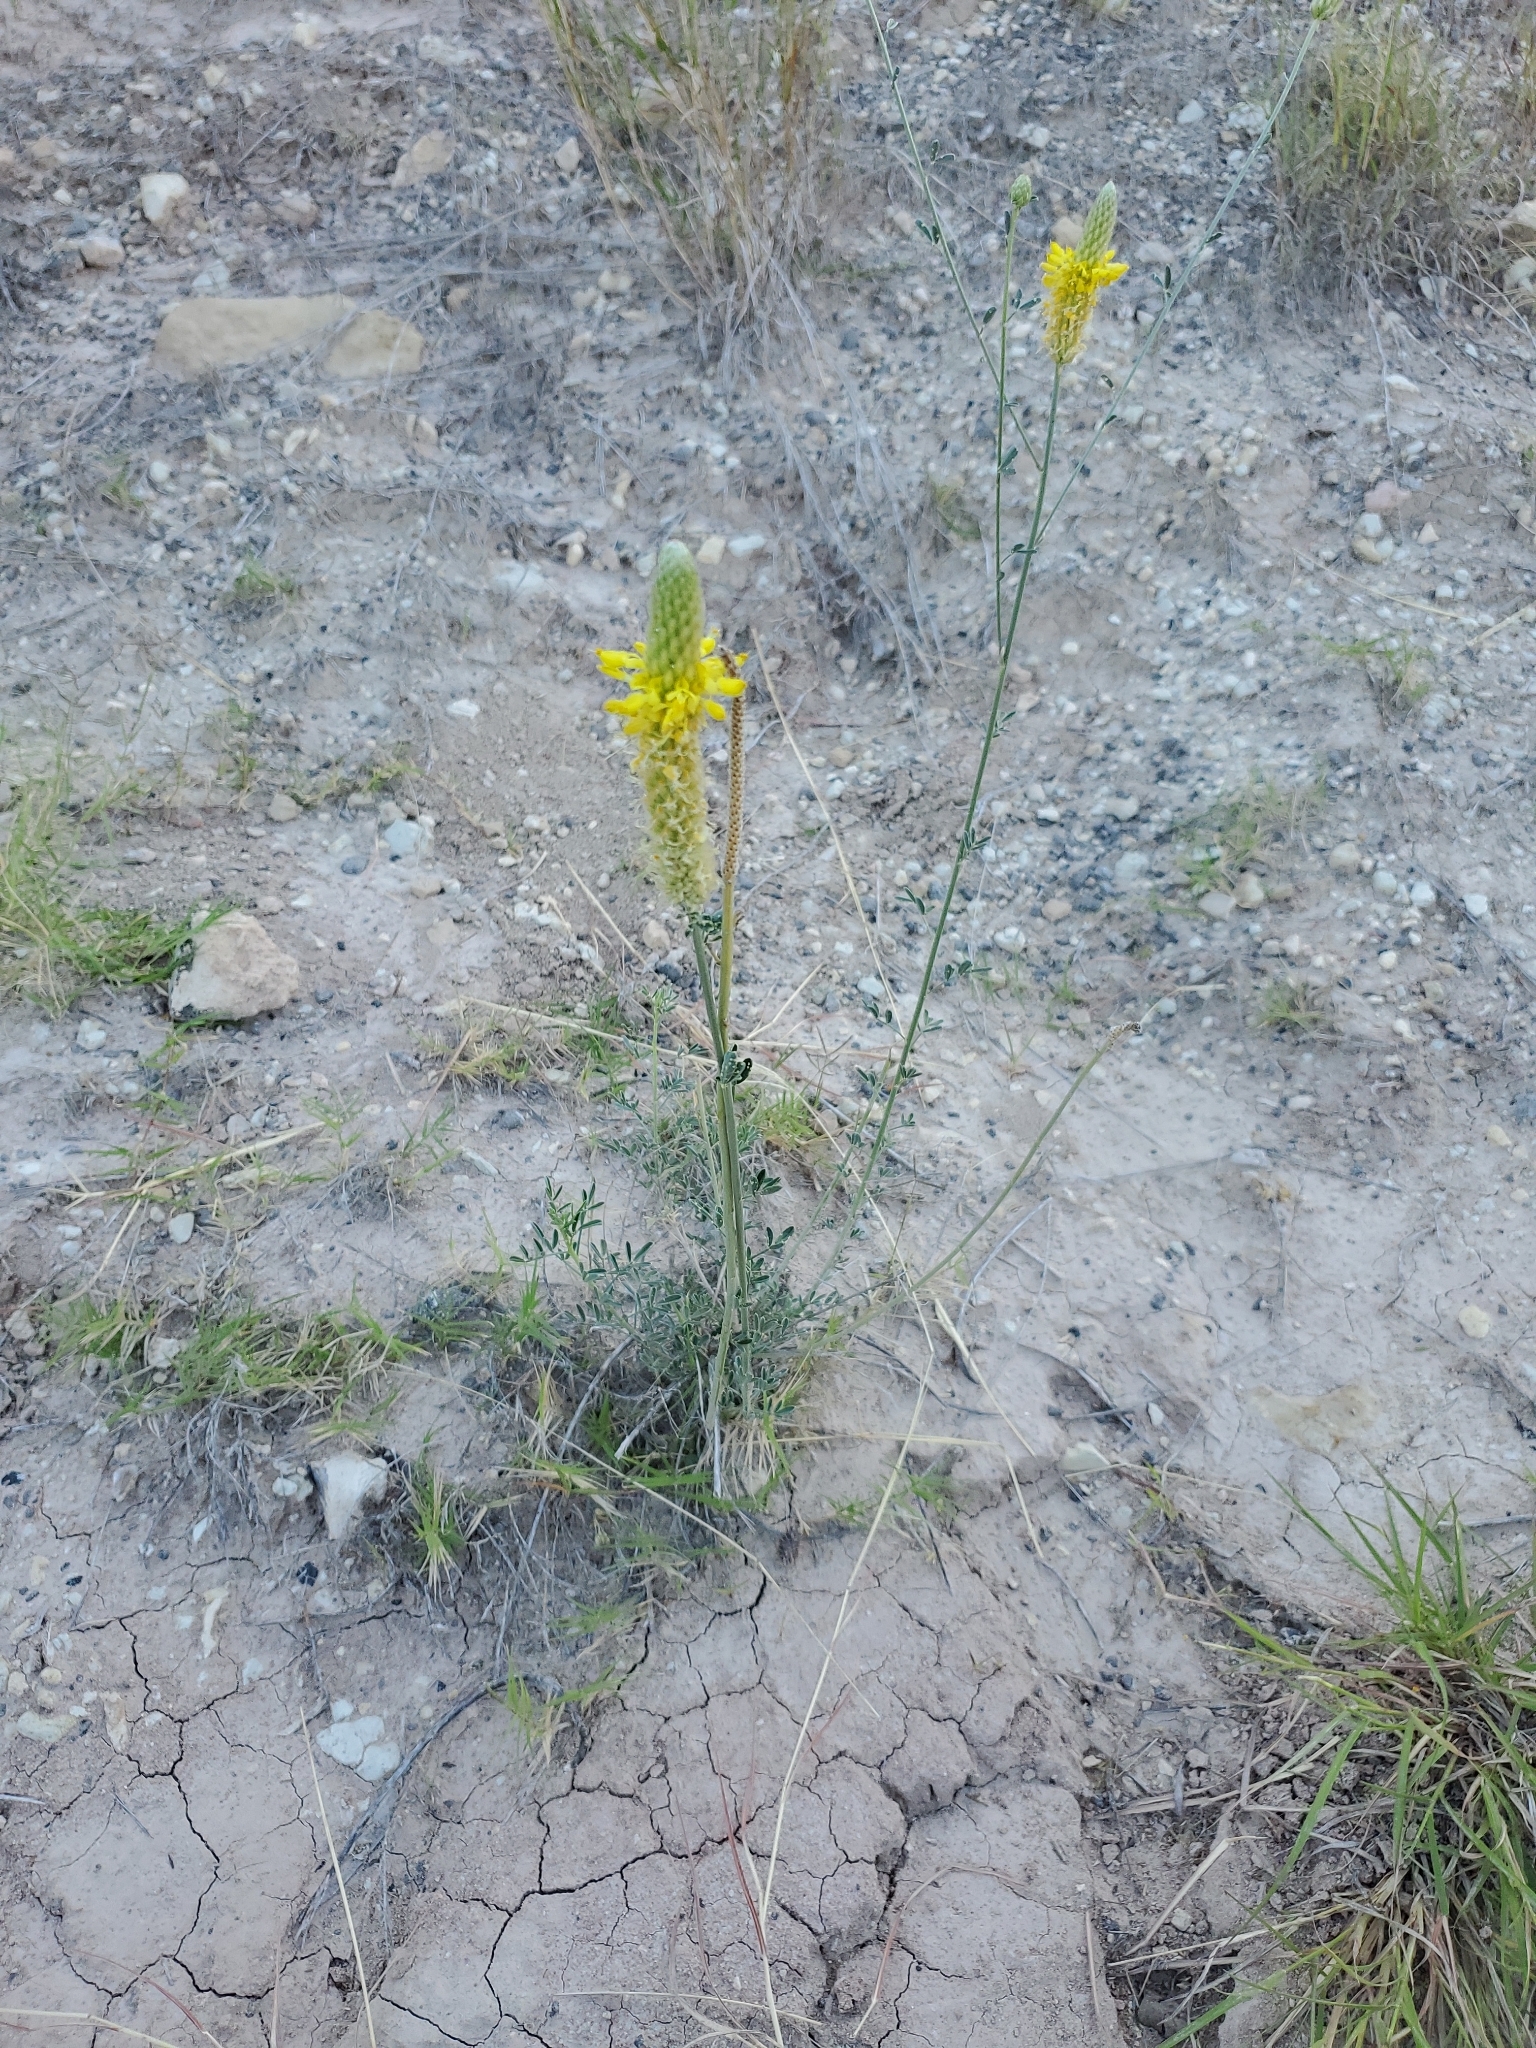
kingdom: Plantae
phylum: Tracheophyta
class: Magnoliopsida
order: Fabales
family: Fabaceae
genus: Dalea
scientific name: Dalea aurea
